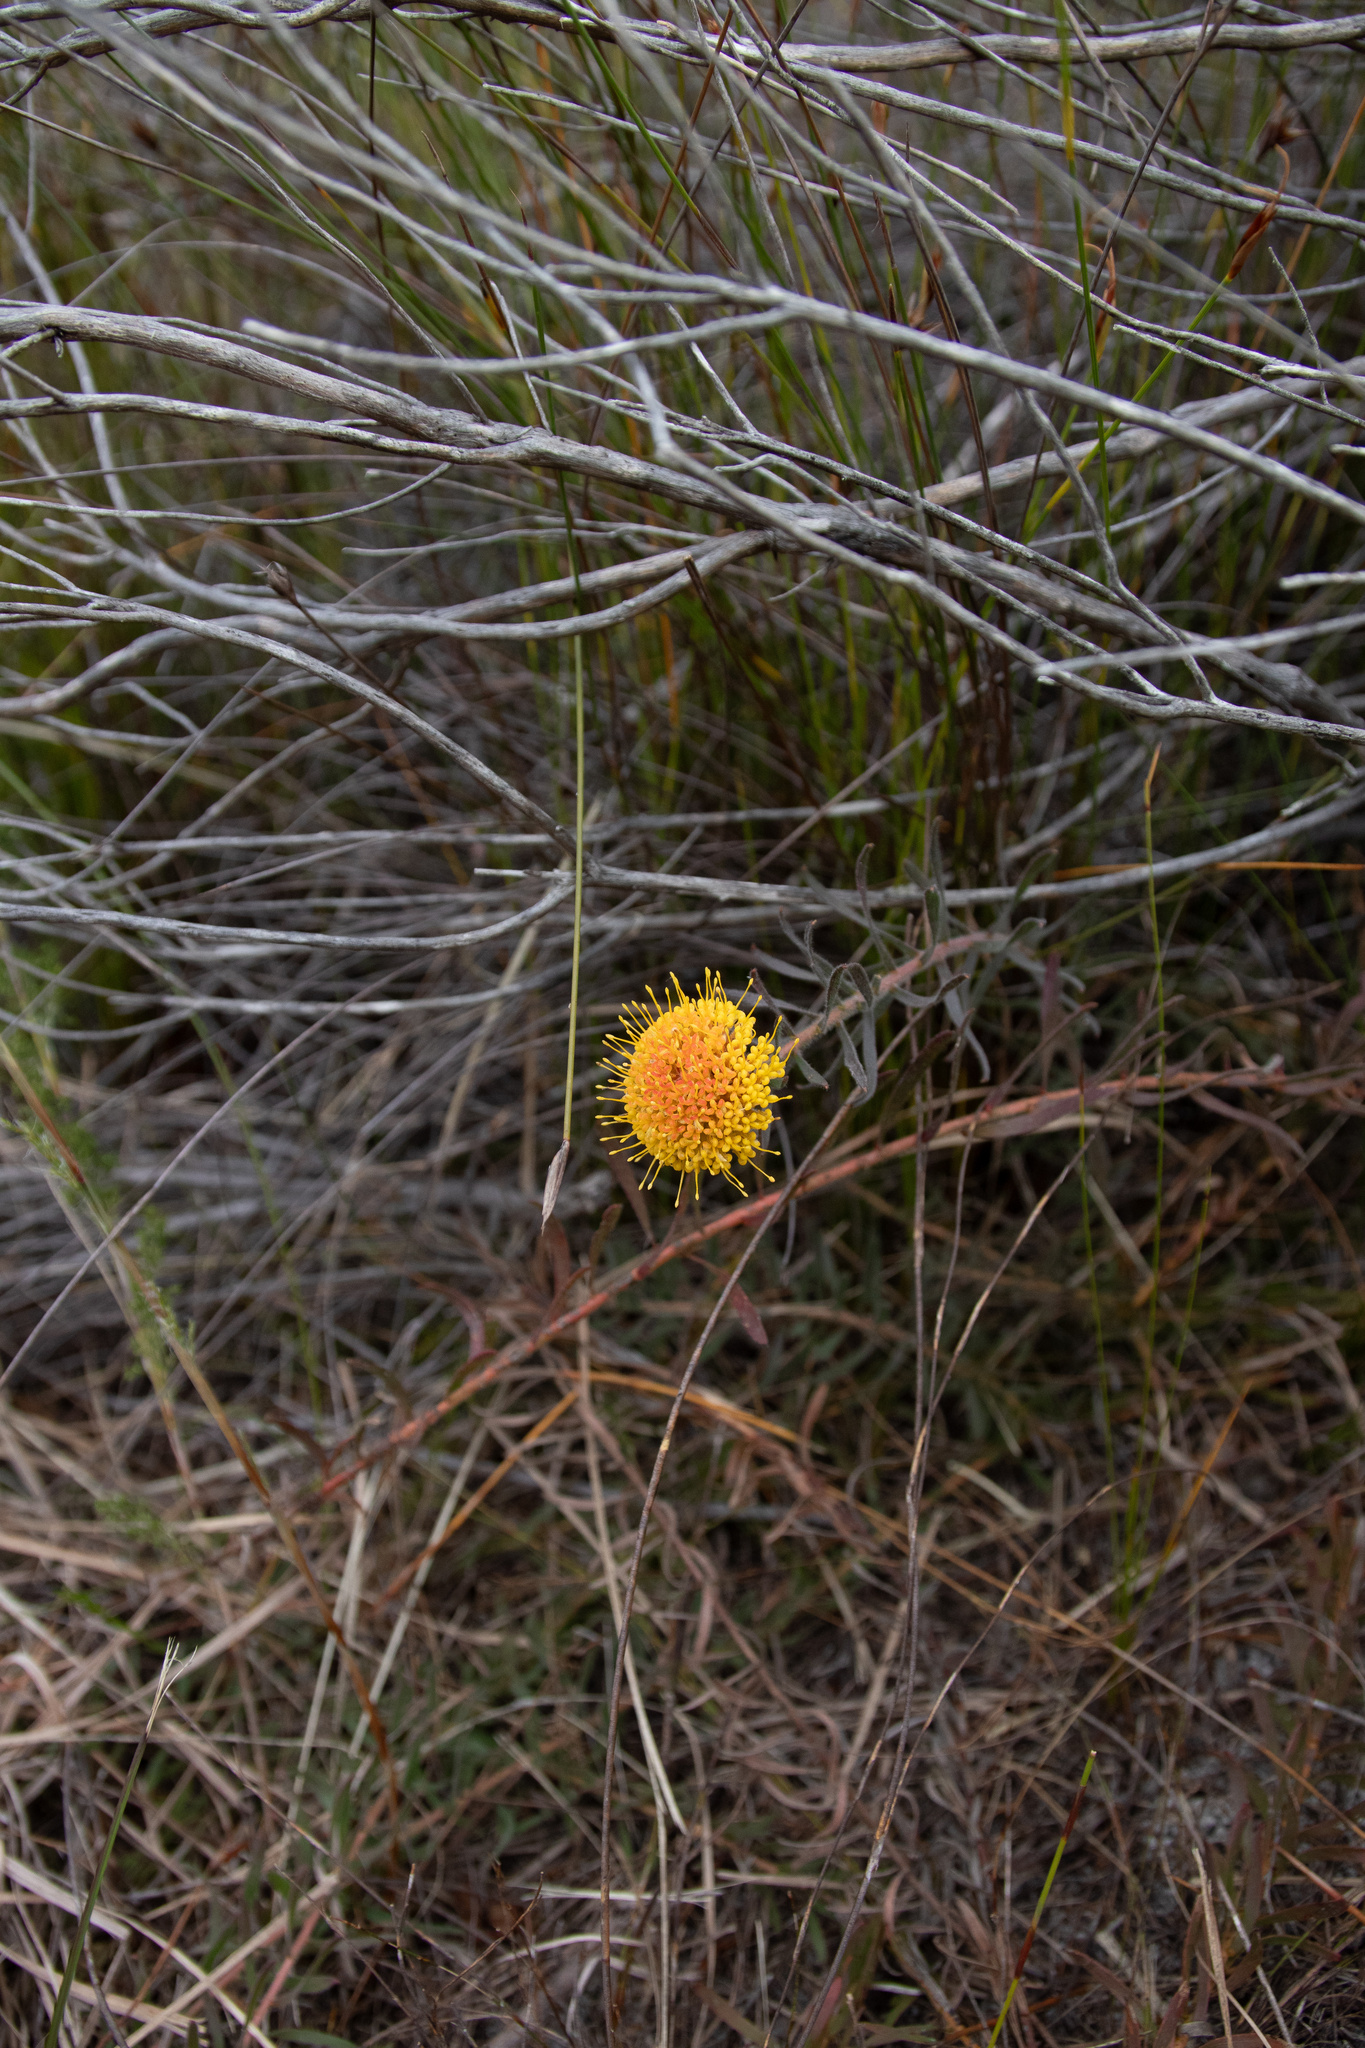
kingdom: Plantae
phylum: Tracheophyta
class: Magnoliopsida
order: Proteales
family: Proteaceae
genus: Leucospermum
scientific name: Leucospermum prostratum
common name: Yellow-trailing pincushion
